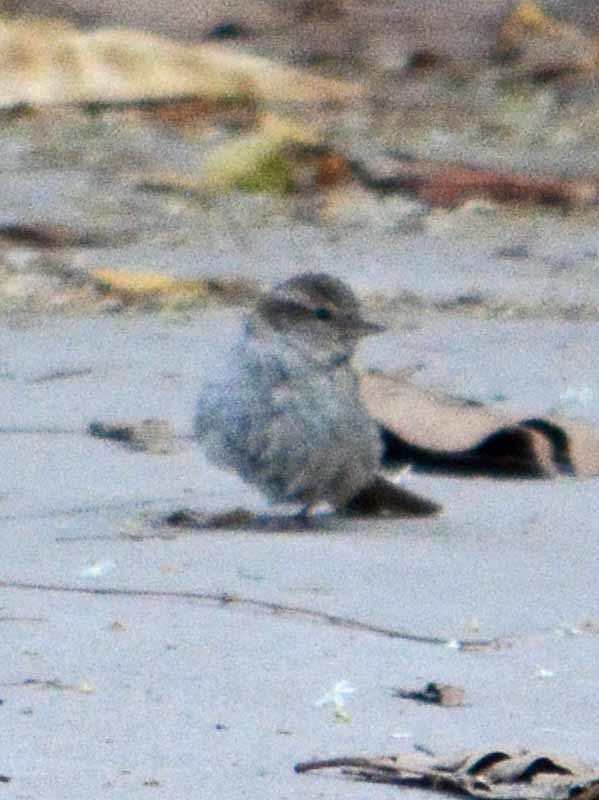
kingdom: Animalia
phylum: Chordata
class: Aves
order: Passeriformes
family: Passeridae
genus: Passer
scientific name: Passer domesticus
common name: House sparrow
